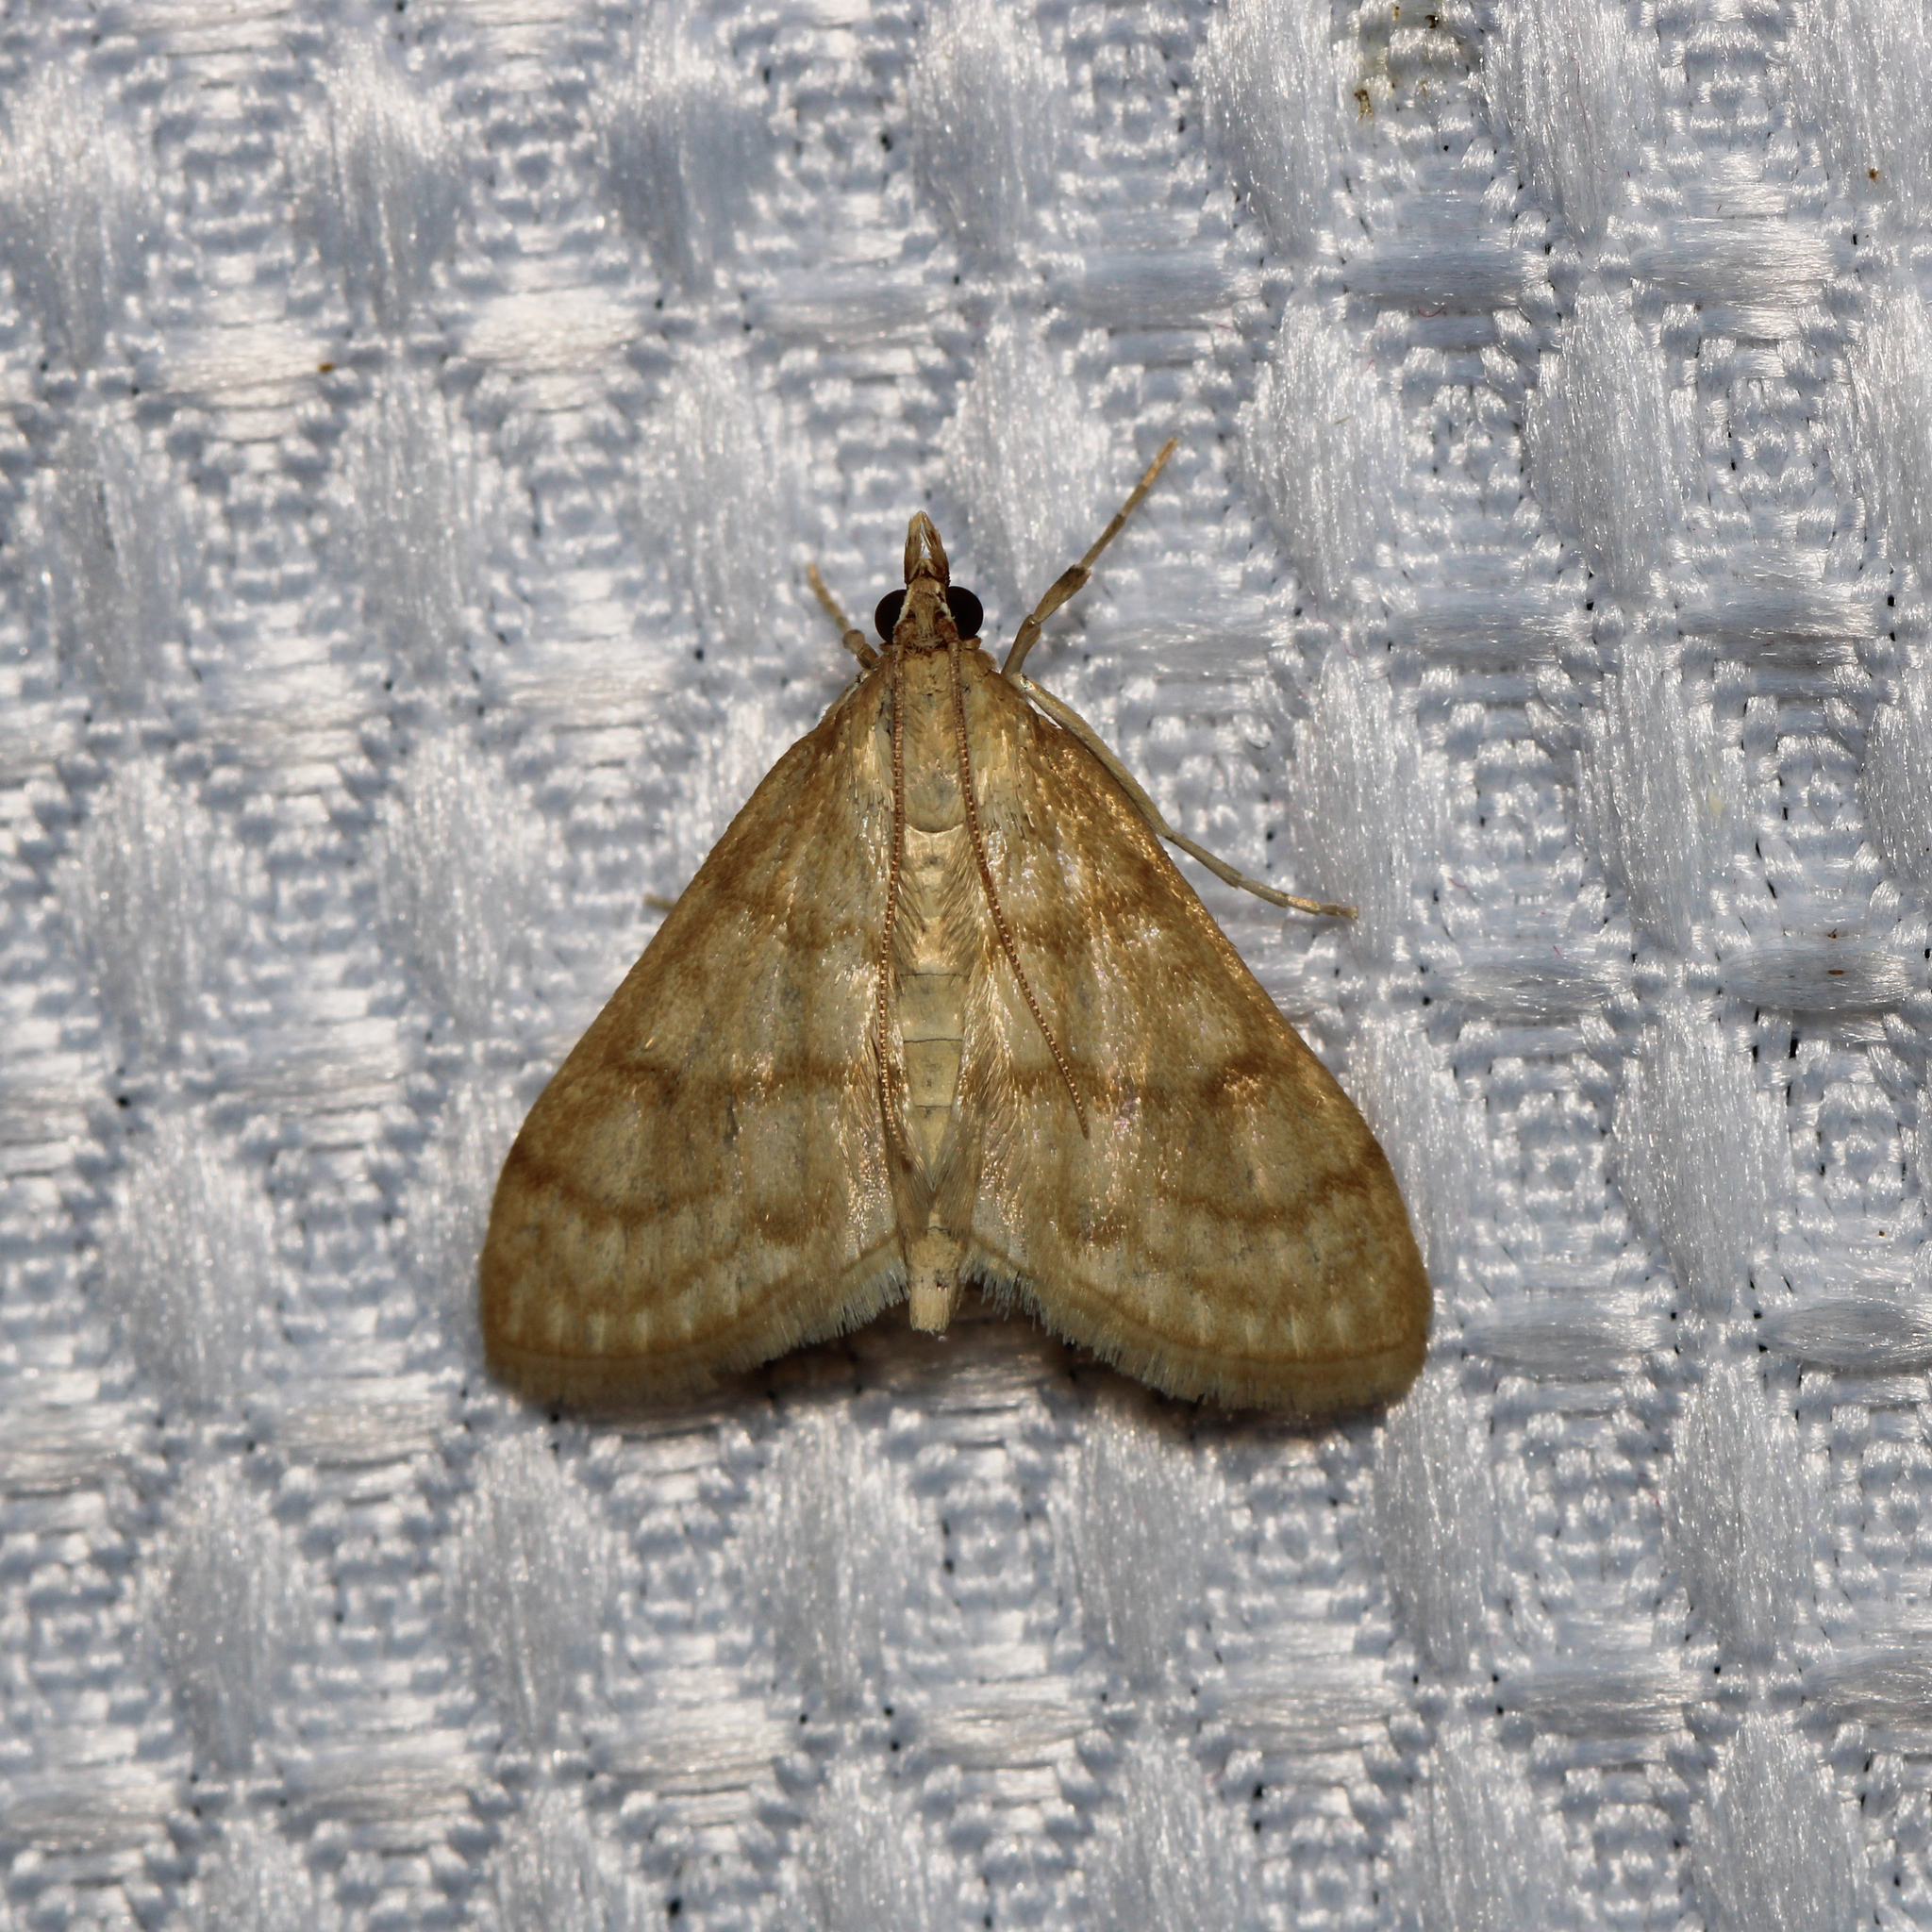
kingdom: Animalia
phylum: Arthropoda
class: Insecta
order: Lepidoptera
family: Crambidae
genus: Paracorsia
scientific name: Paracorsia repandalis
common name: Mullein moth
